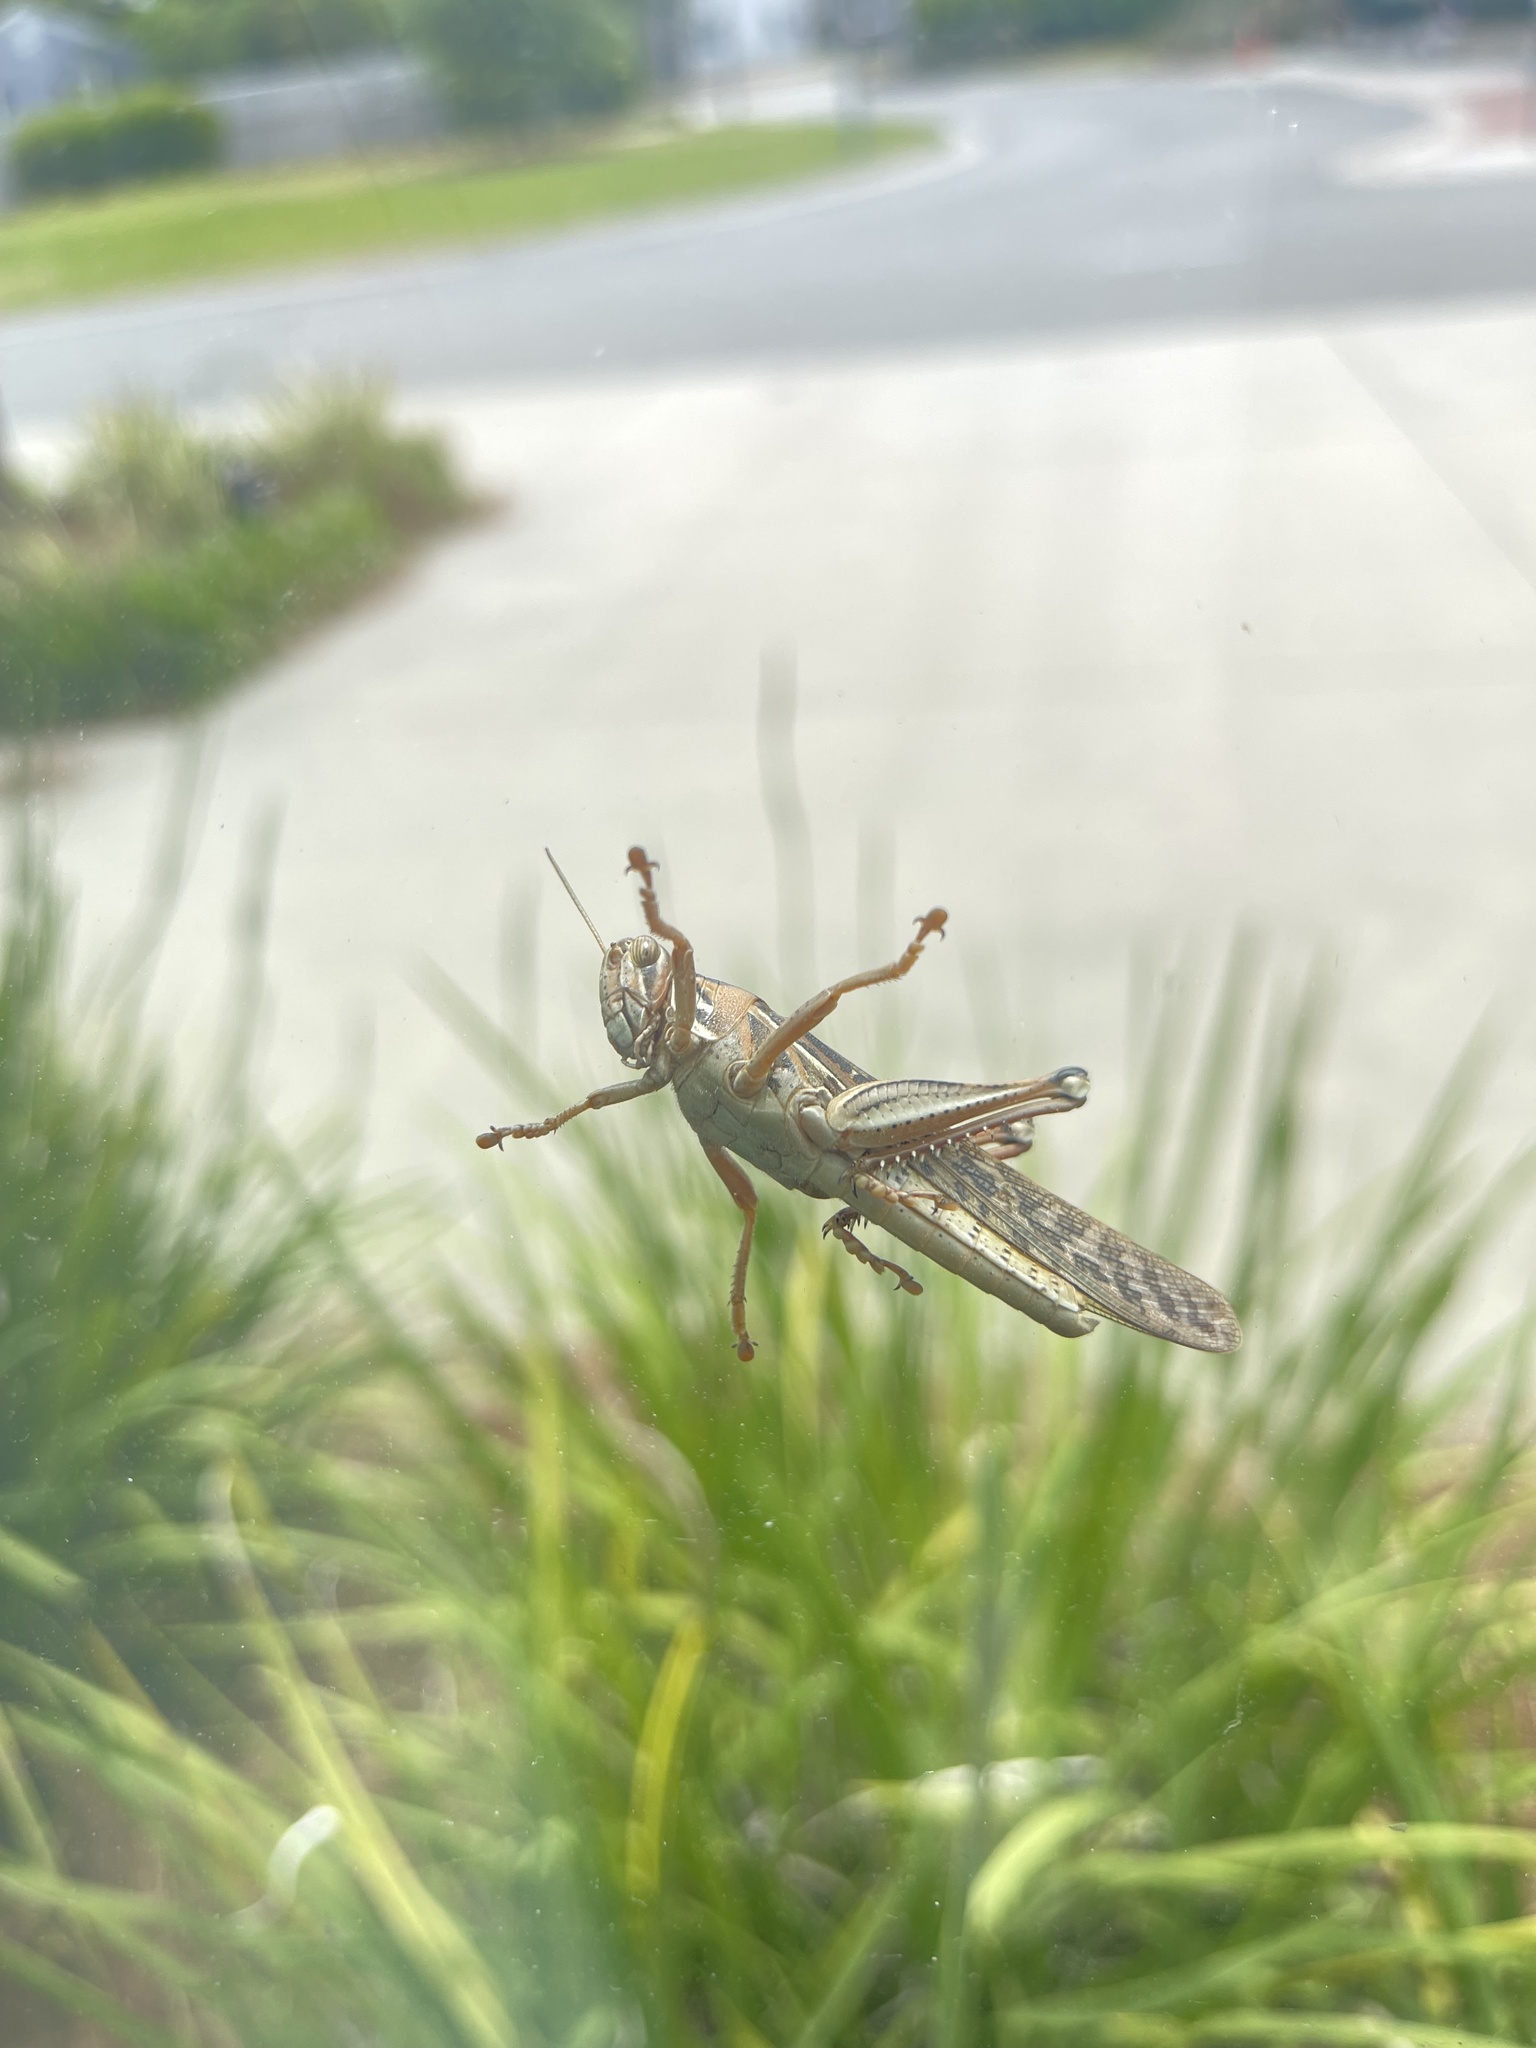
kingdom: Animalia
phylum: Arthropoda
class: Insecta
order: Orthoptera
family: Acrididae
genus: Schistocerca
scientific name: Schistocerca americana
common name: American bird locust
